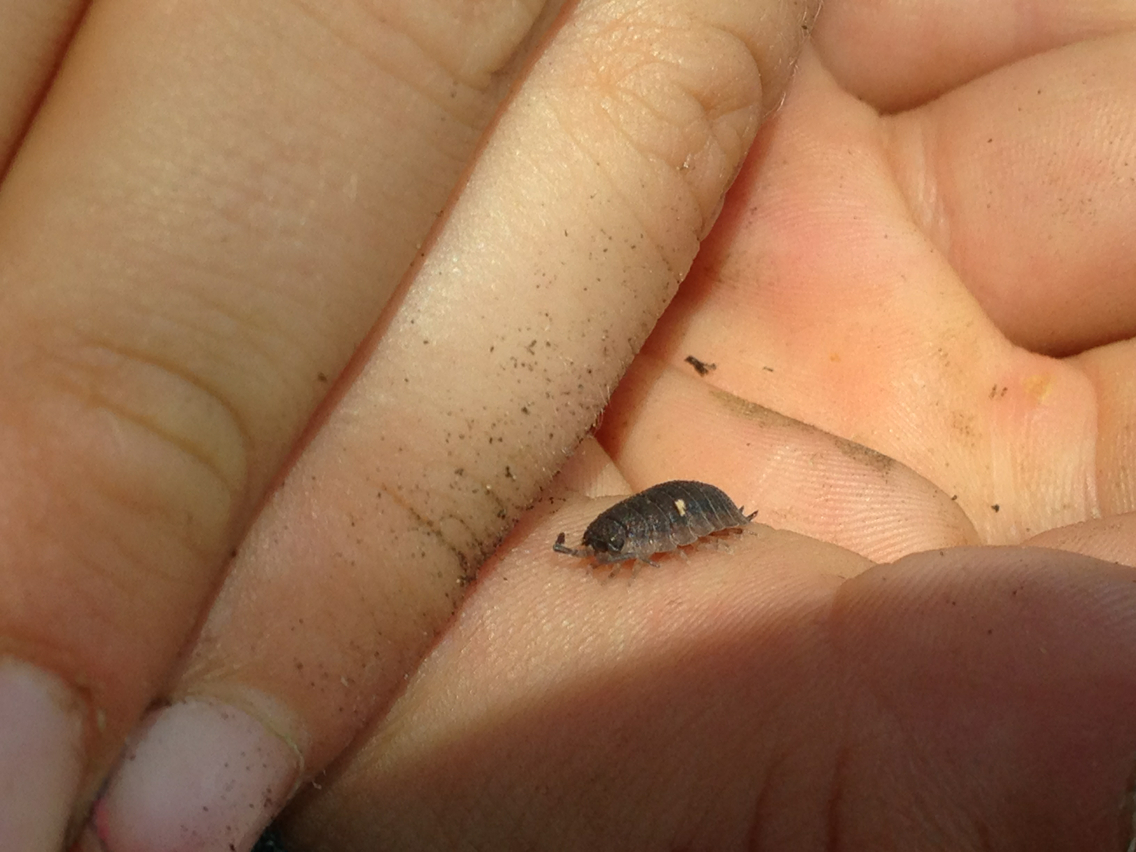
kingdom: Animalia
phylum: Arthropoda
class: Malacostraca
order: Isopoda
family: Porcellionidae
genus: Porcellio
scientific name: Porcellio scaber
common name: Common rough woodlouse
